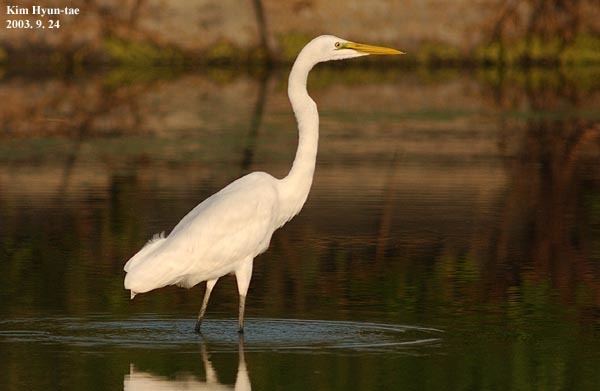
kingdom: Animalia
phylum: Chordata
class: Aves
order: Pelecaniformes
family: Ardeidae
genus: Ardea
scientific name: Ardea alba
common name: Great egret
